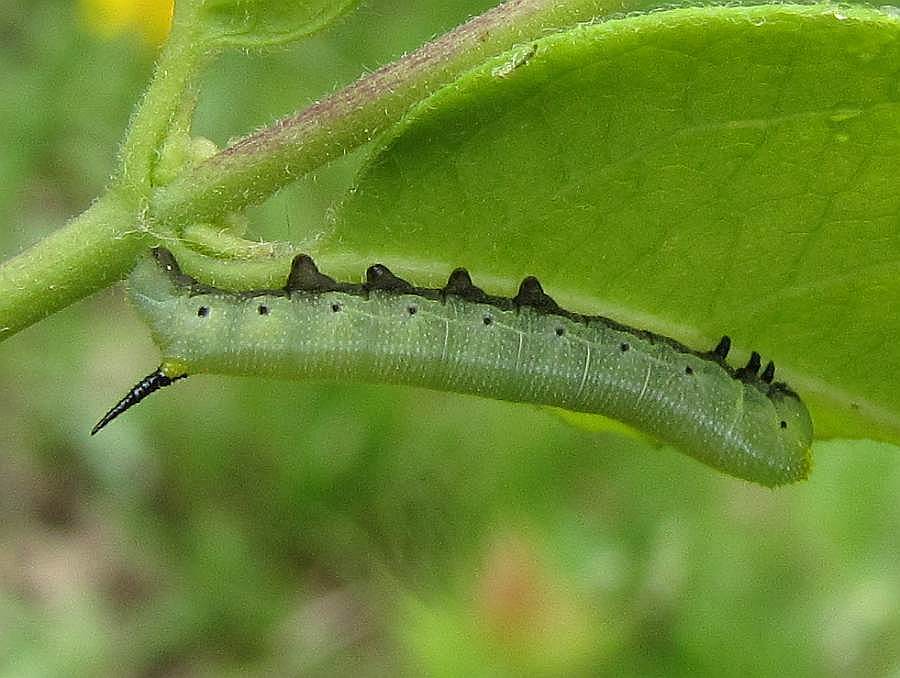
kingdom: Animalia
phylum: Arthropoda
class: Insecta
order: Lepidoptera
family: Sphingidae
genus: Hemaris
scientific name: Hemaris diffinis
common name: Bumblebee moth
